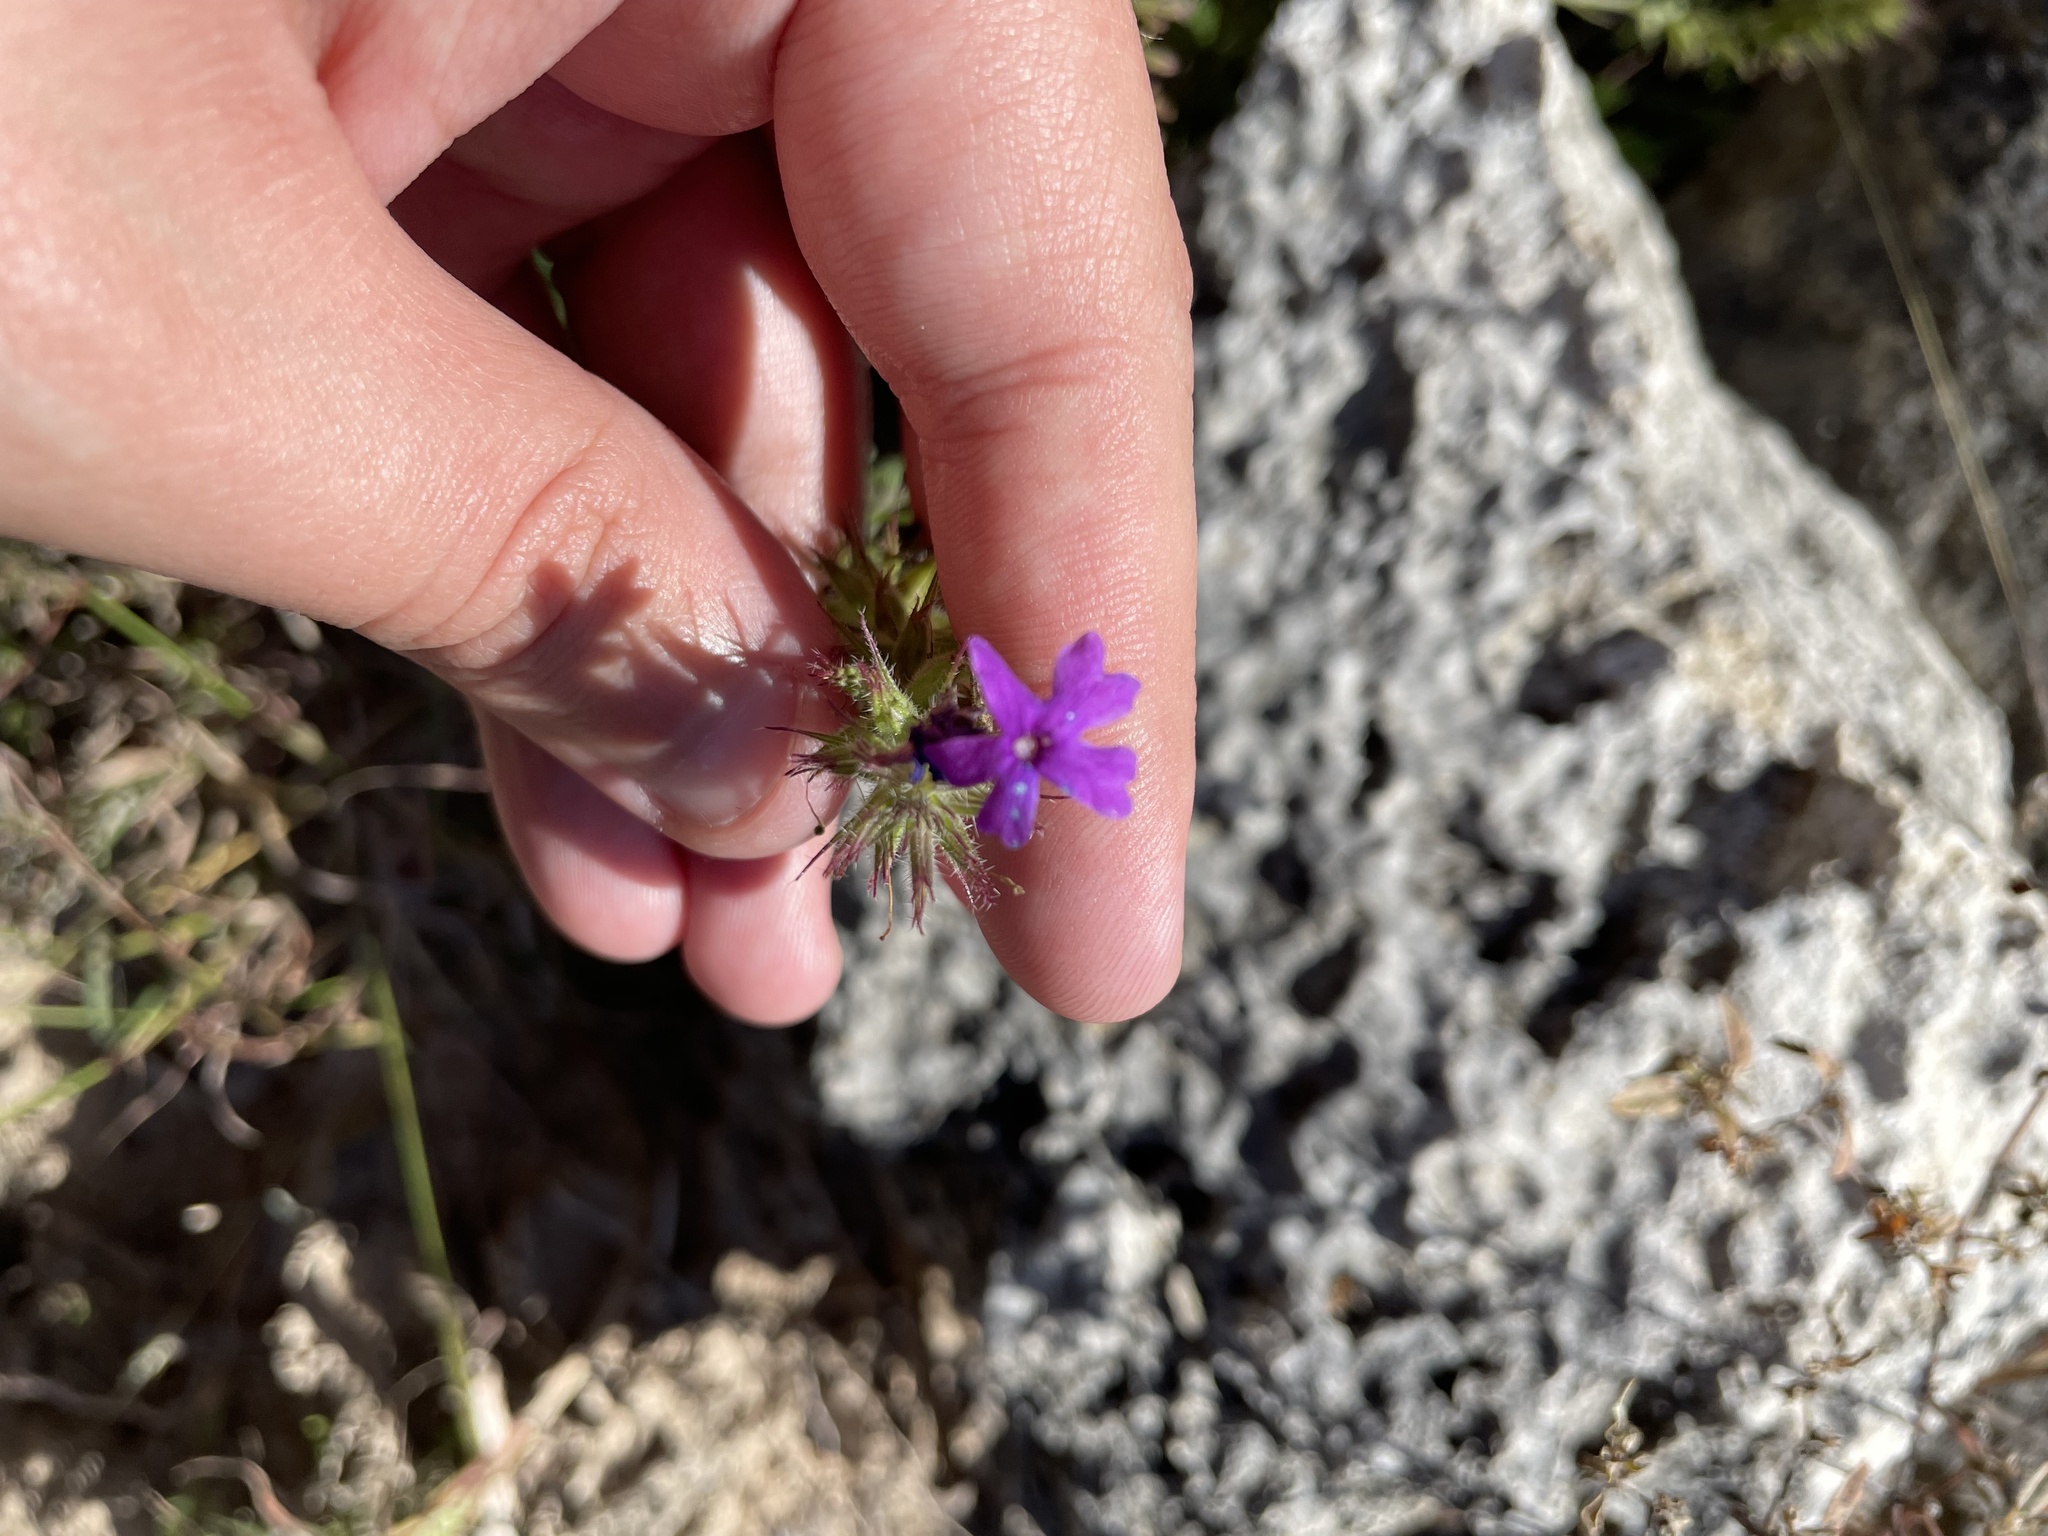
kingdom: Plantae
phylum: Tracheophyta
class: Magnoliopsida
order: Lamiales
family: Verbenaceae
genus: Verbena
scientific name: Verbena bipinnatifida
